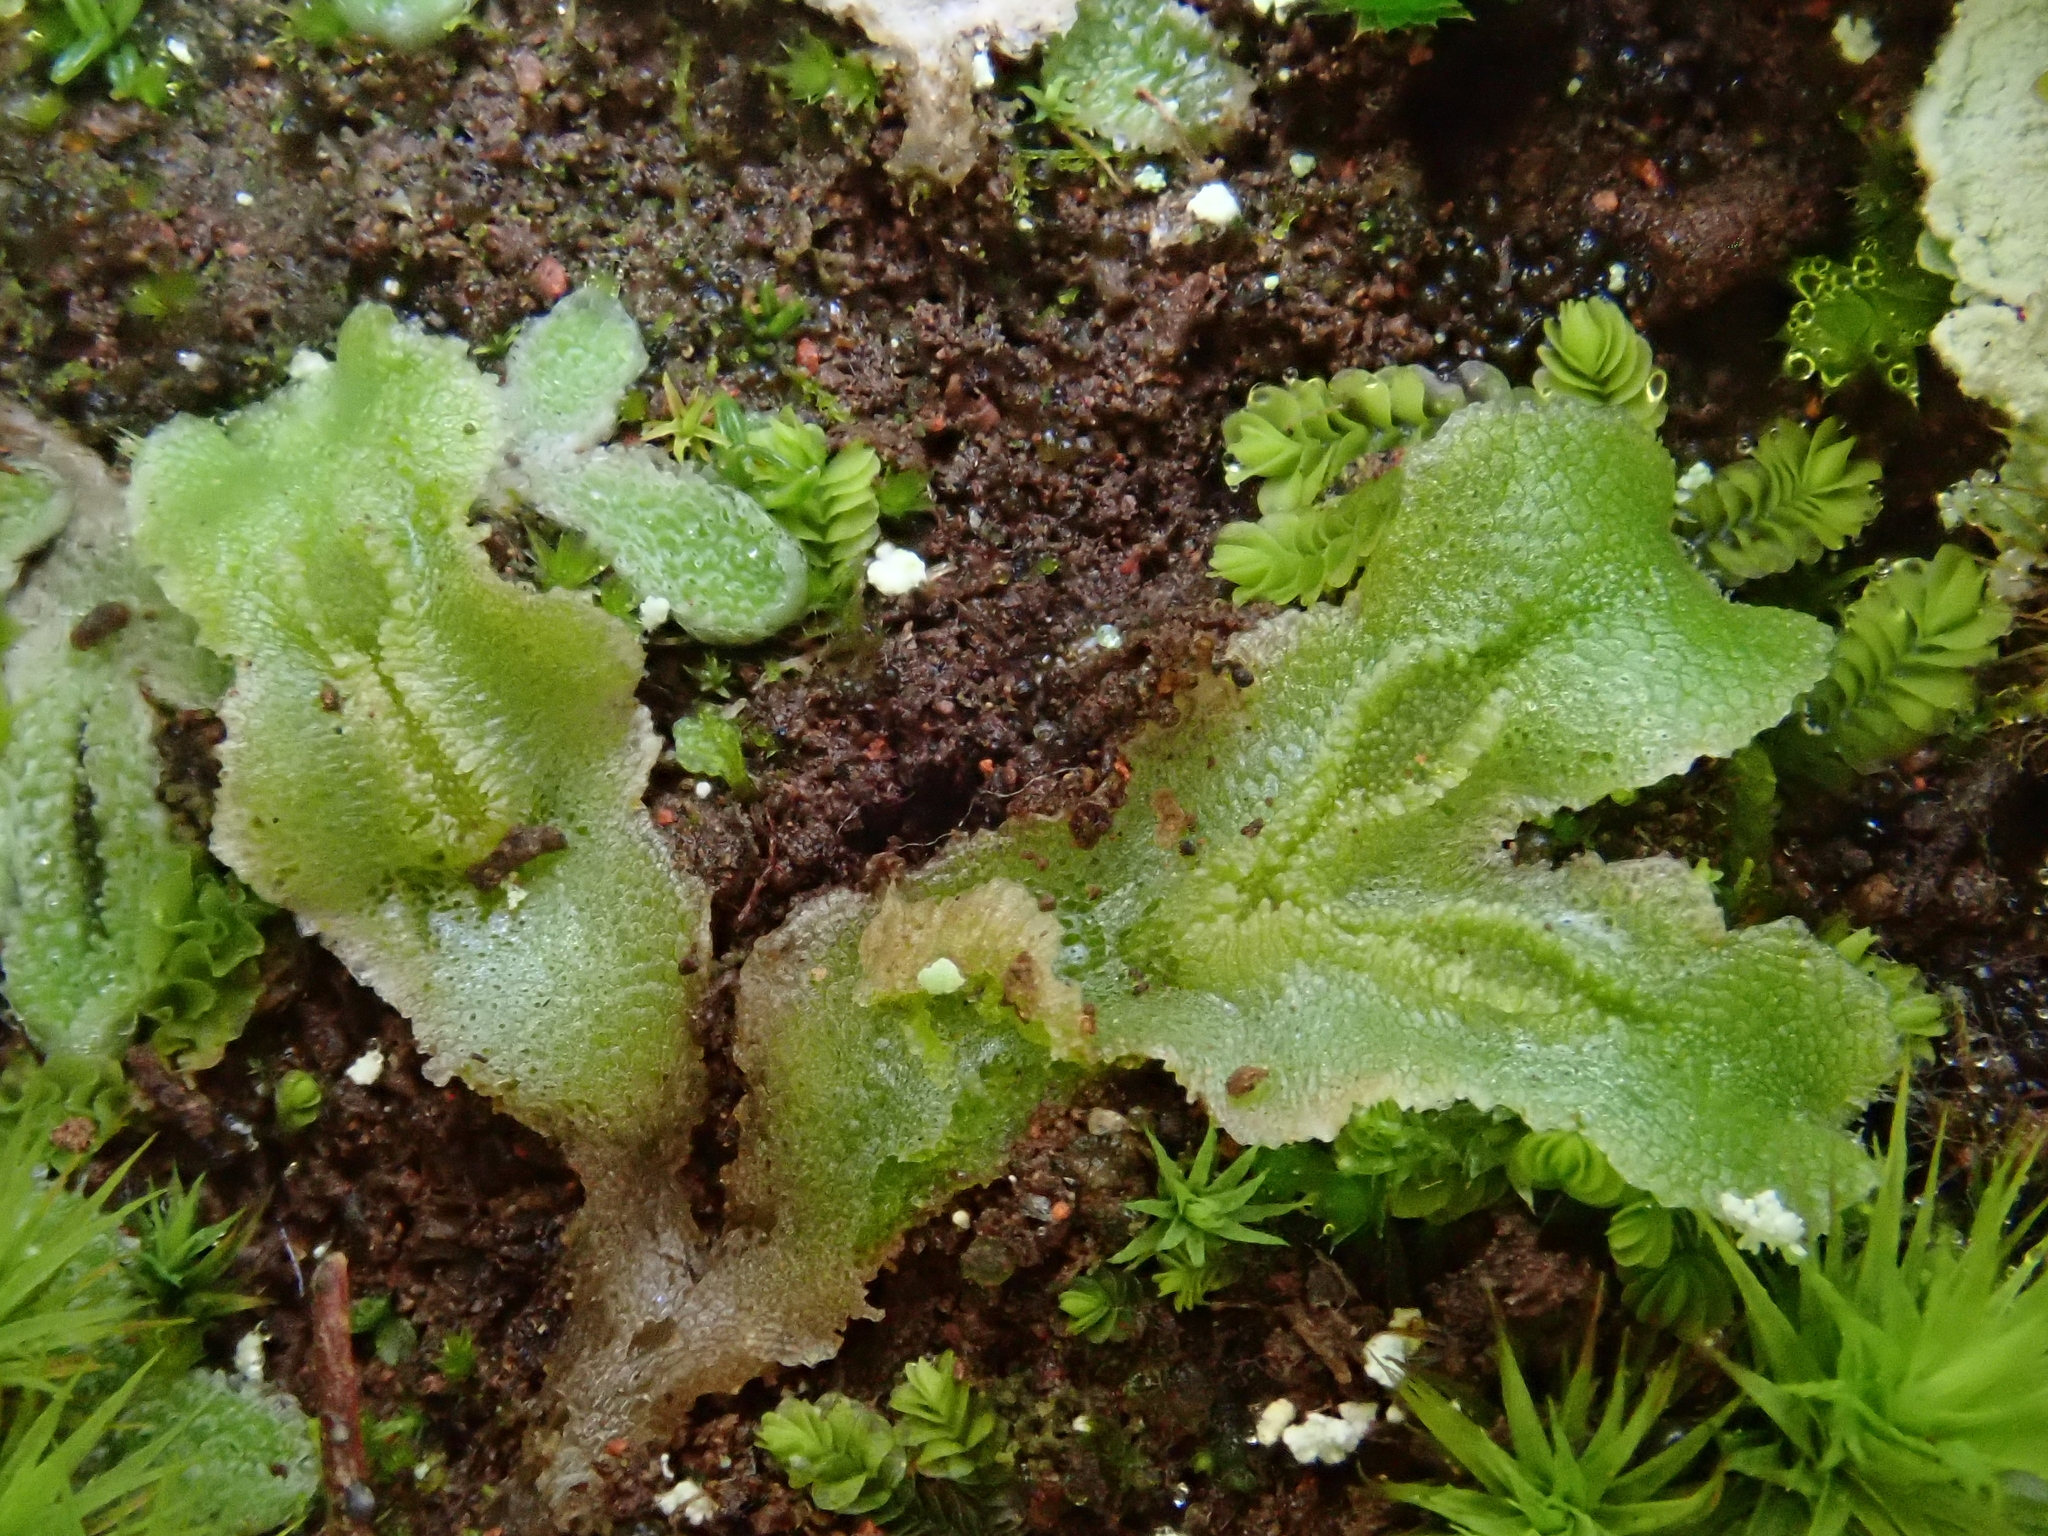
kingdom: Plantae
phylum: Marchantiophyta
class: Marchantiopsida
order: Marchantiales
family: Corsiniaceae
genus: Corsinia
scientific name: Corsinia coriandrina
